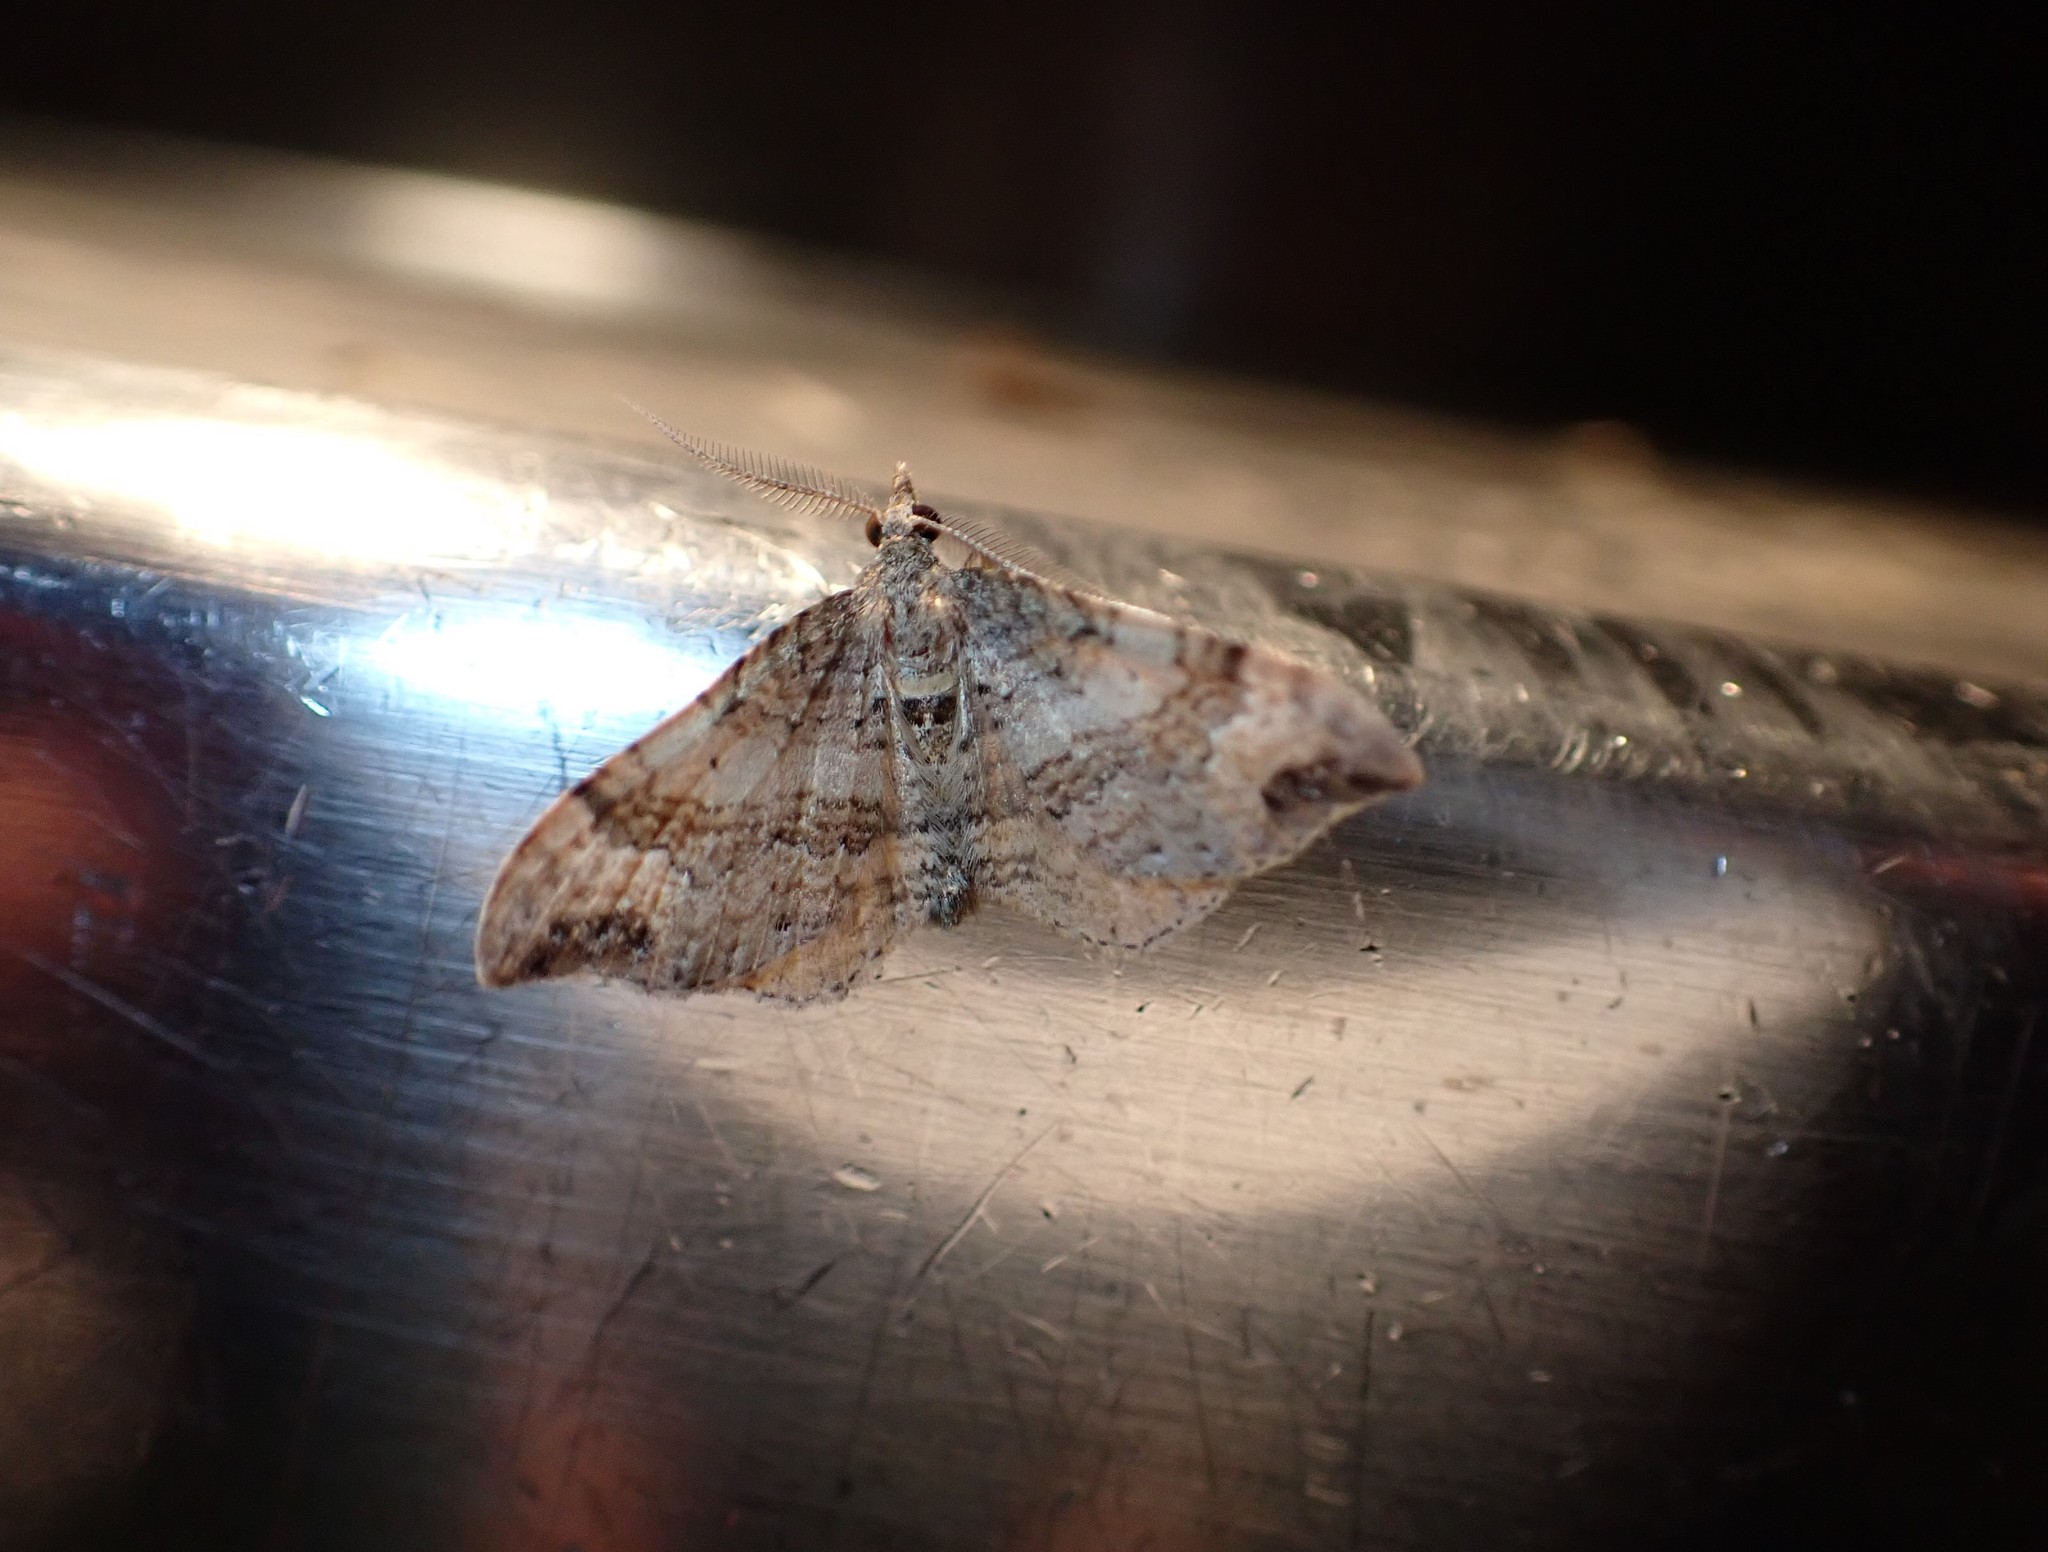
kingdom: Animalia
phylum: Arthropoda
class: Insecta
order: Lepidoptera
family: Geometridae
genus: Homodotis
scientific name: Homodotis megaspilata
